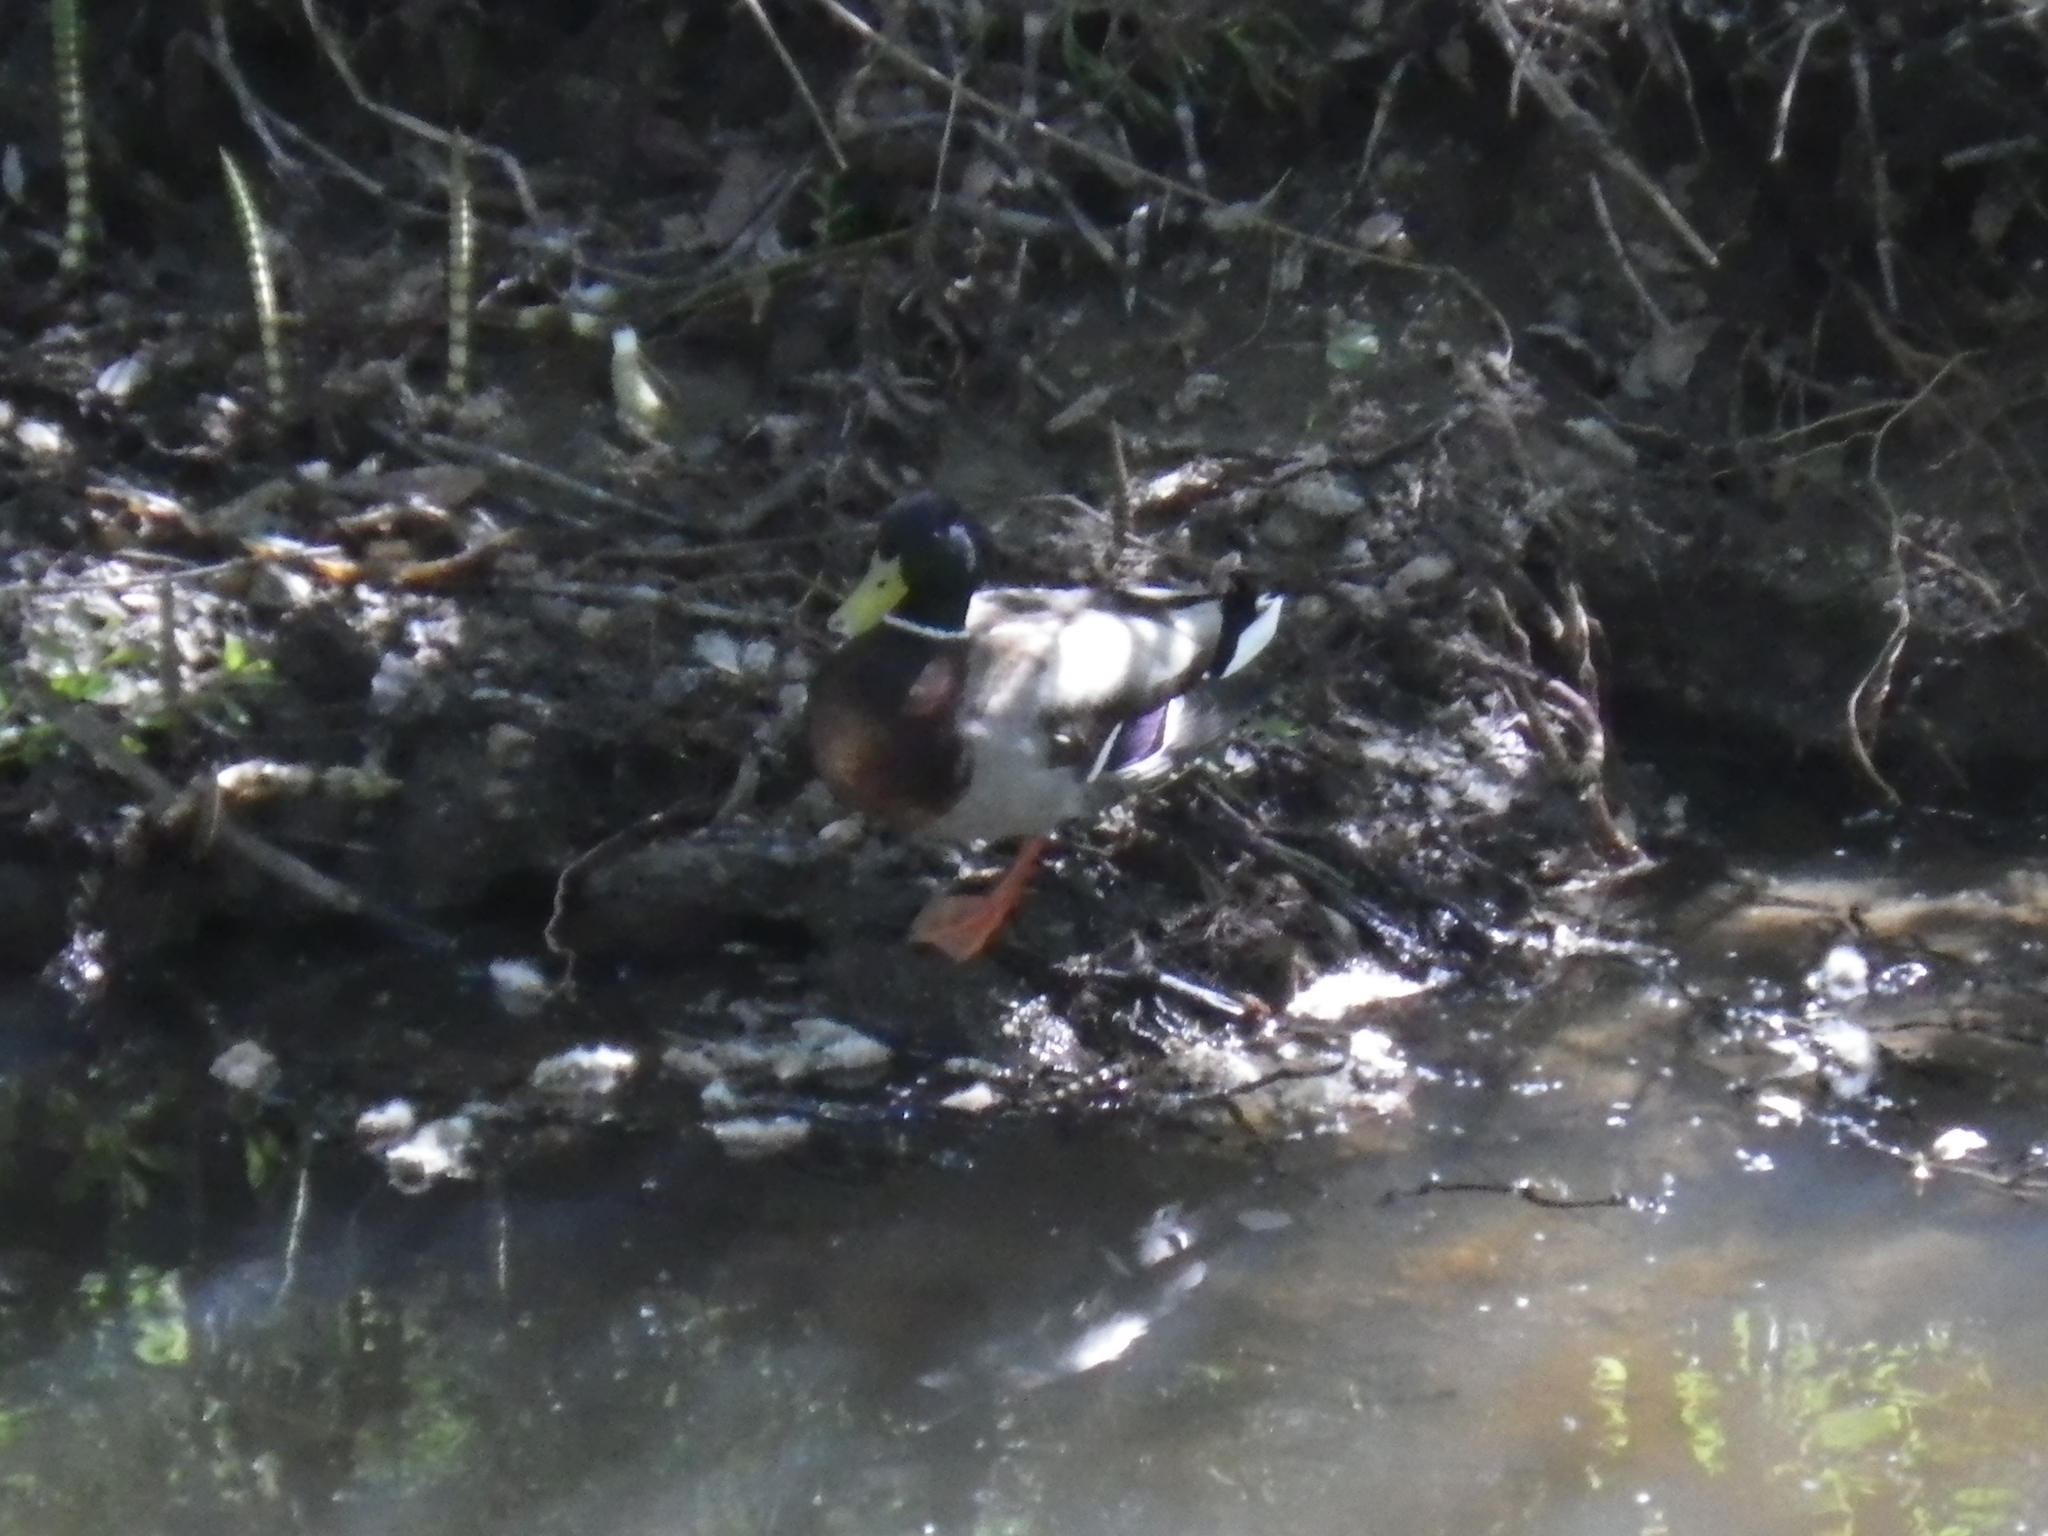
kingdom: Animalia
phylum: Chordata
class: Aves
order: Anseriformes
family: Anatidae
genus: Anas
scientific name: Anas platyrhynchos
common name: Mallard
